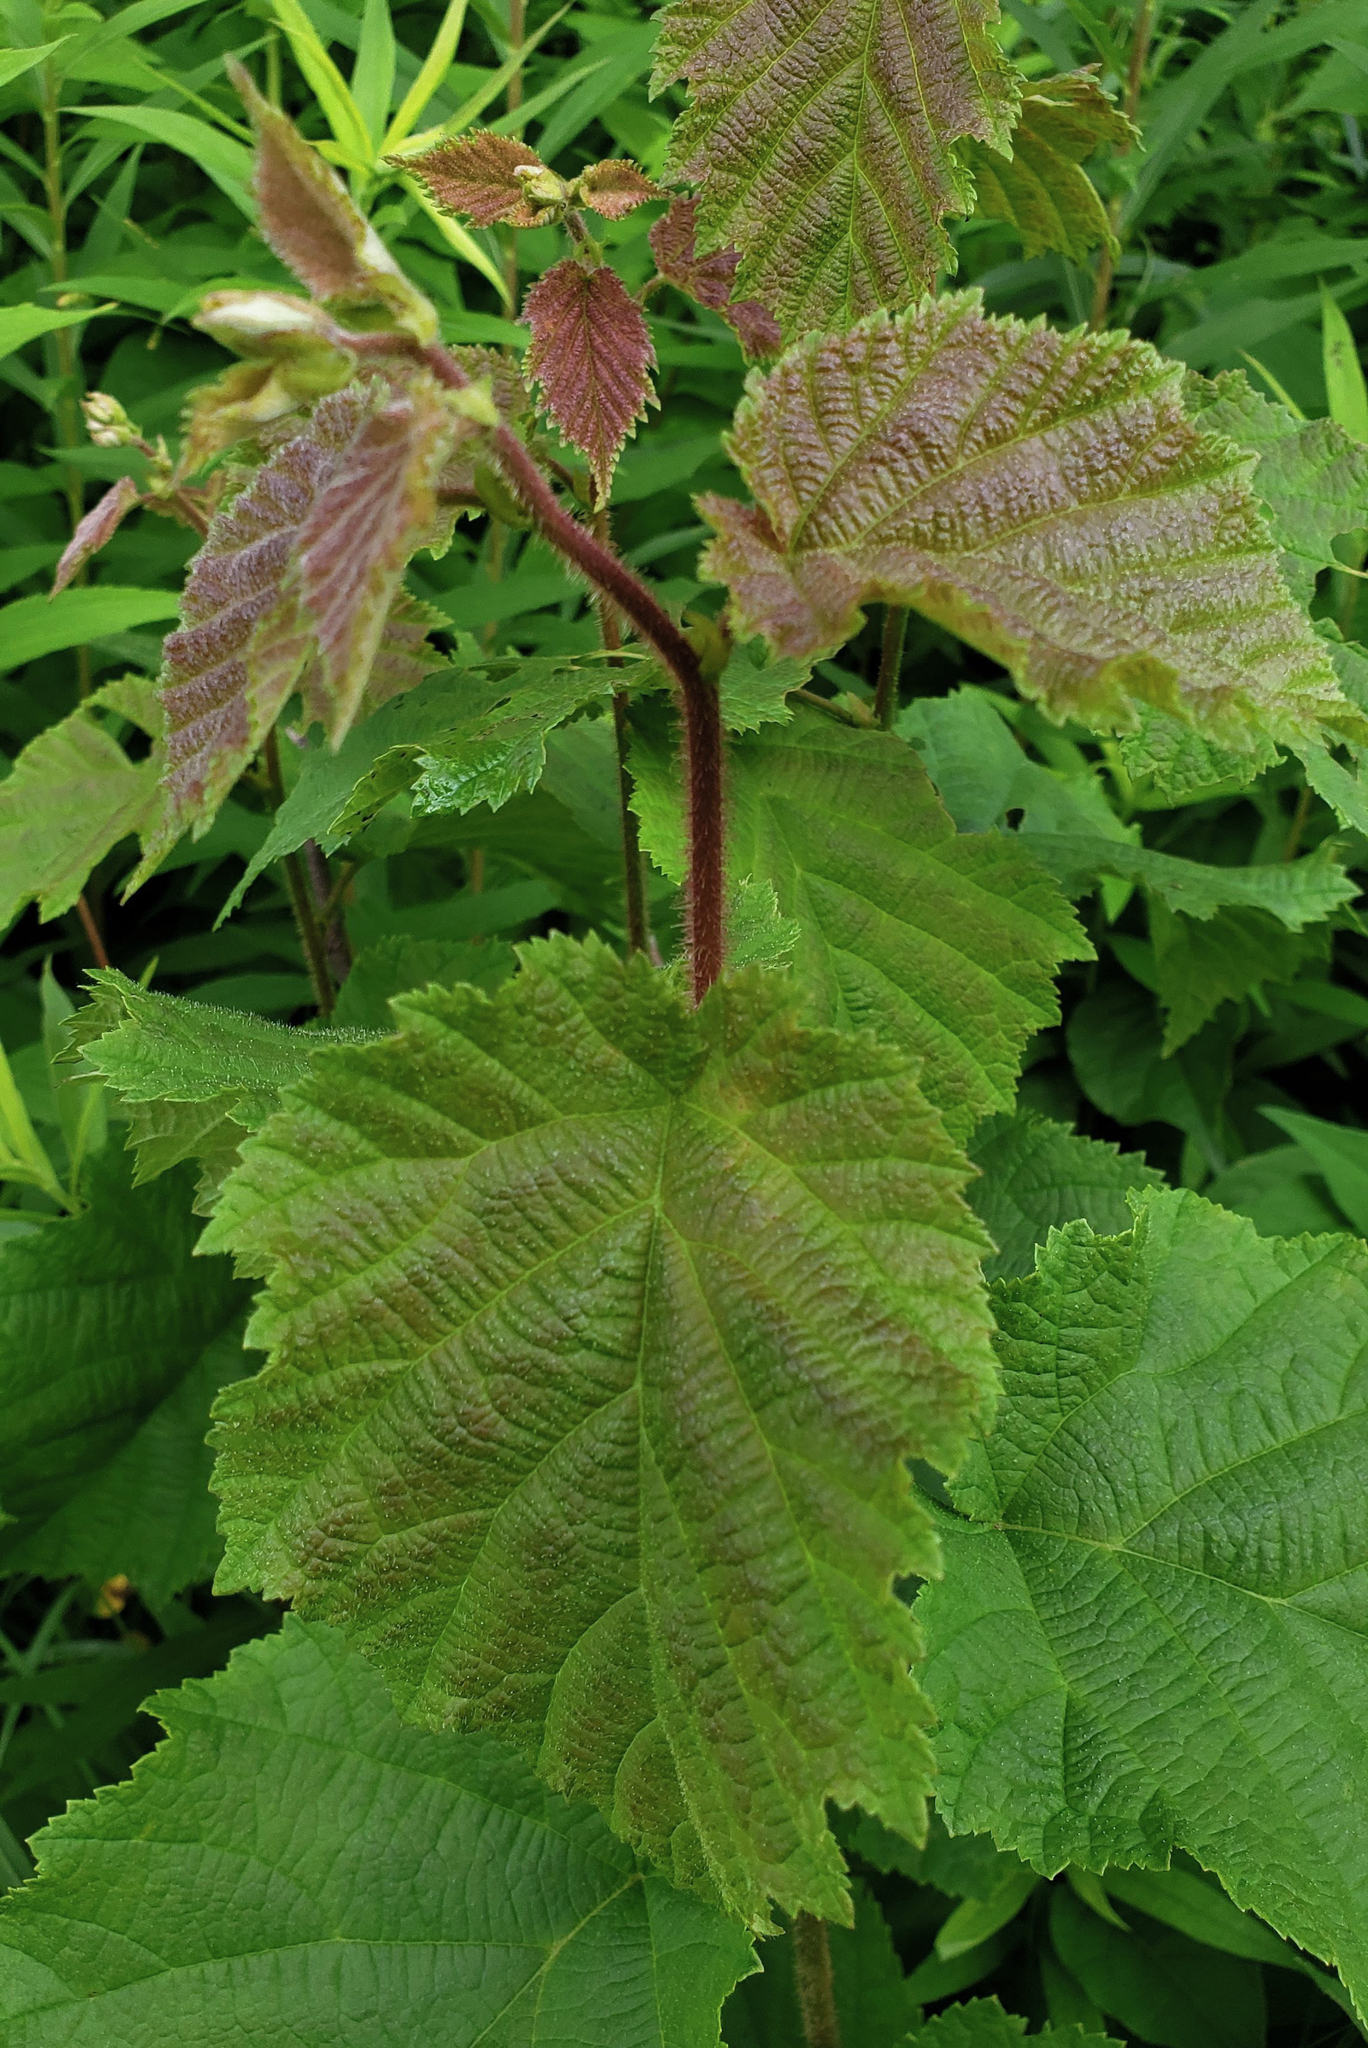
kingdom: Plantae
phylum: Tracheophyta
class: Magnoliopsida
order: Fagales
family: Betulaceae
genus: Corylus
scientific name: Corylus americana
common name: American hazel
